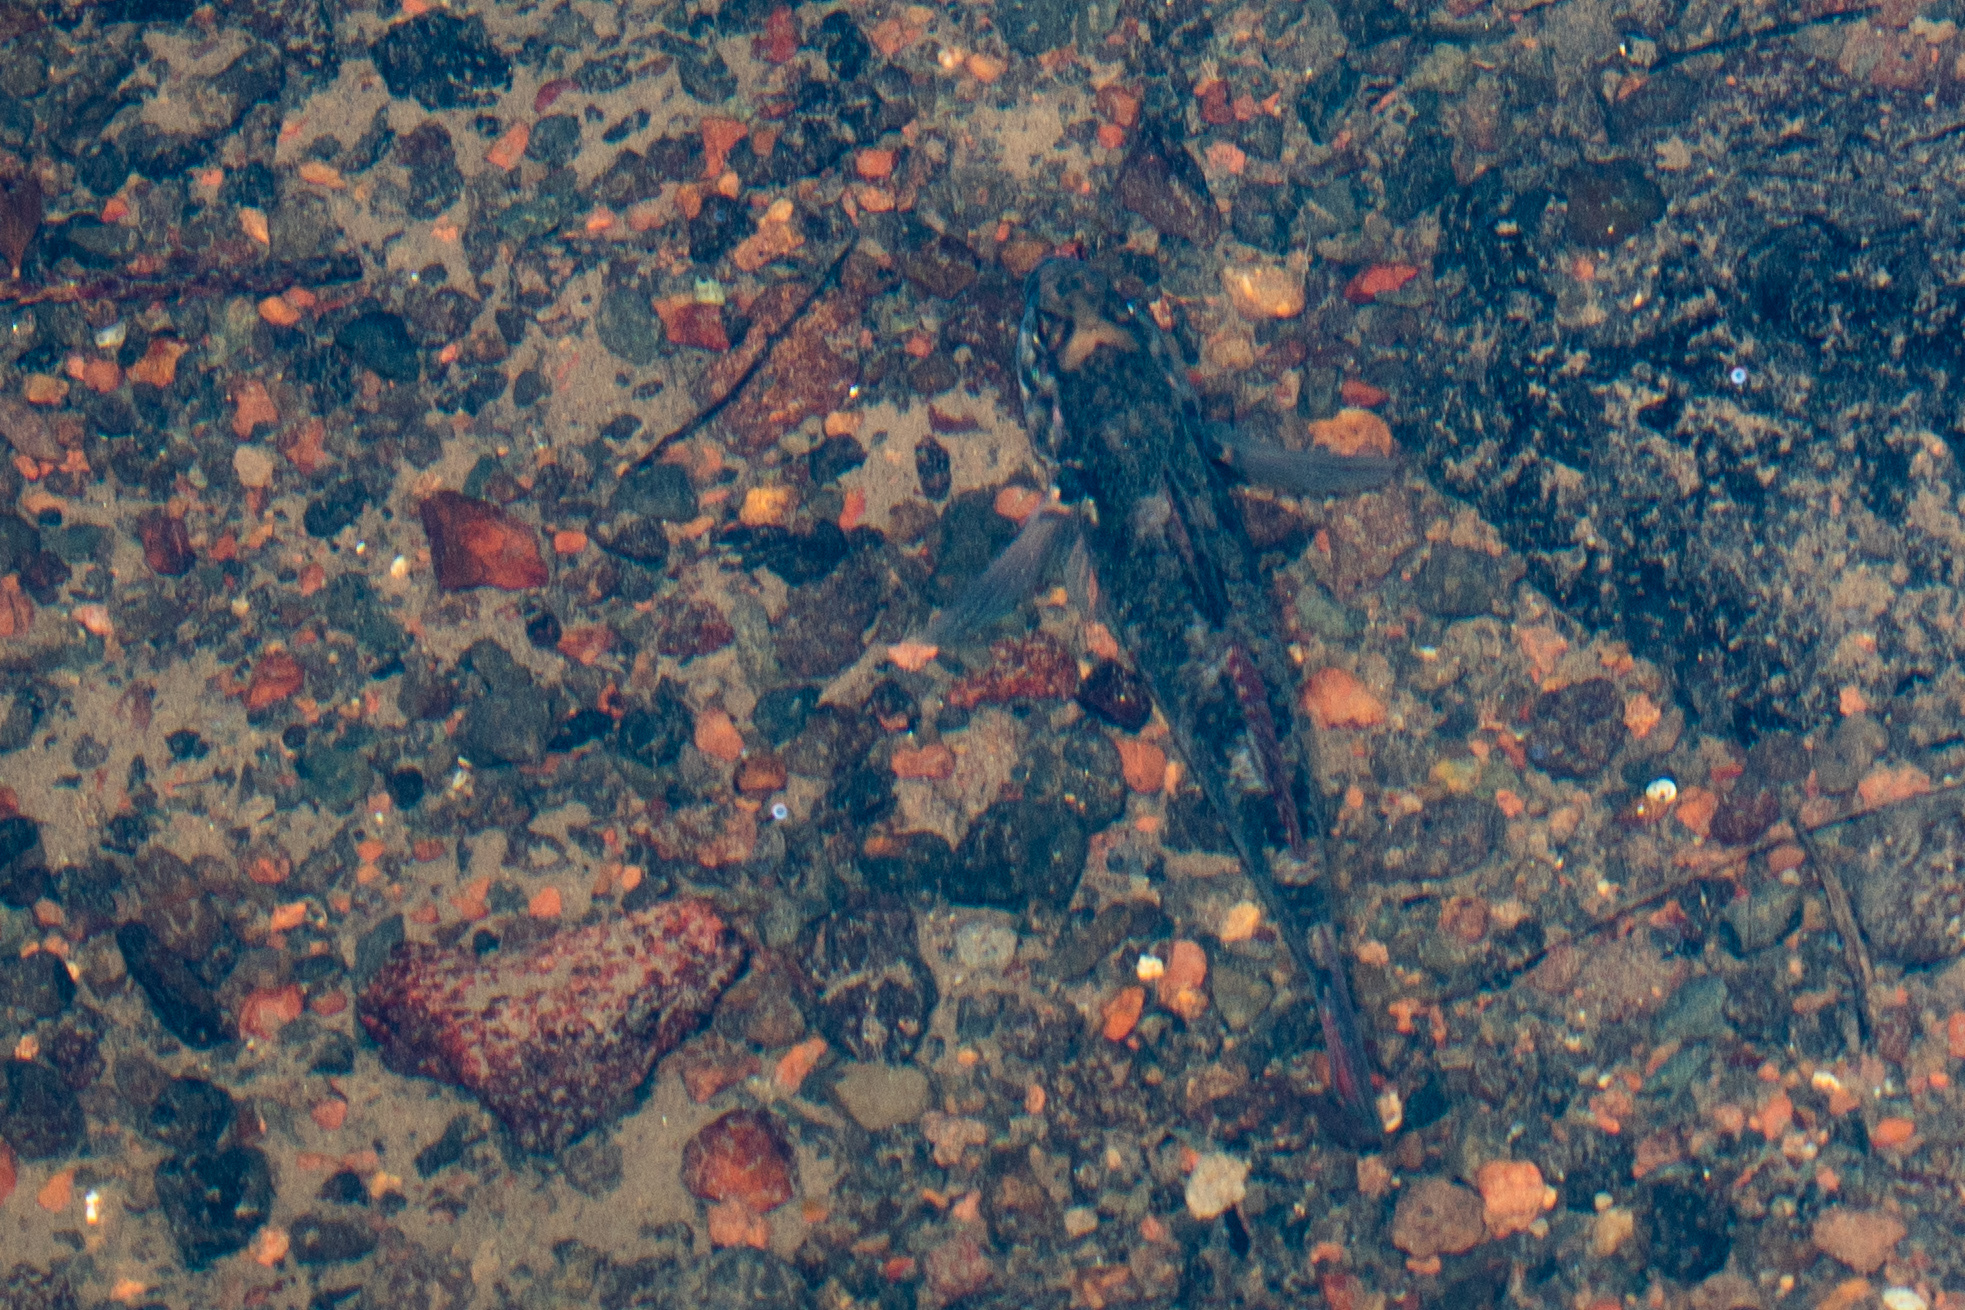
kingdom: Animalia
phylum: Chordata
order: Perciformes
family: Eleotridae
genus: Gobiomorphus
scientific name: Gobiomorphus huttoni
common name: Redfin bully
